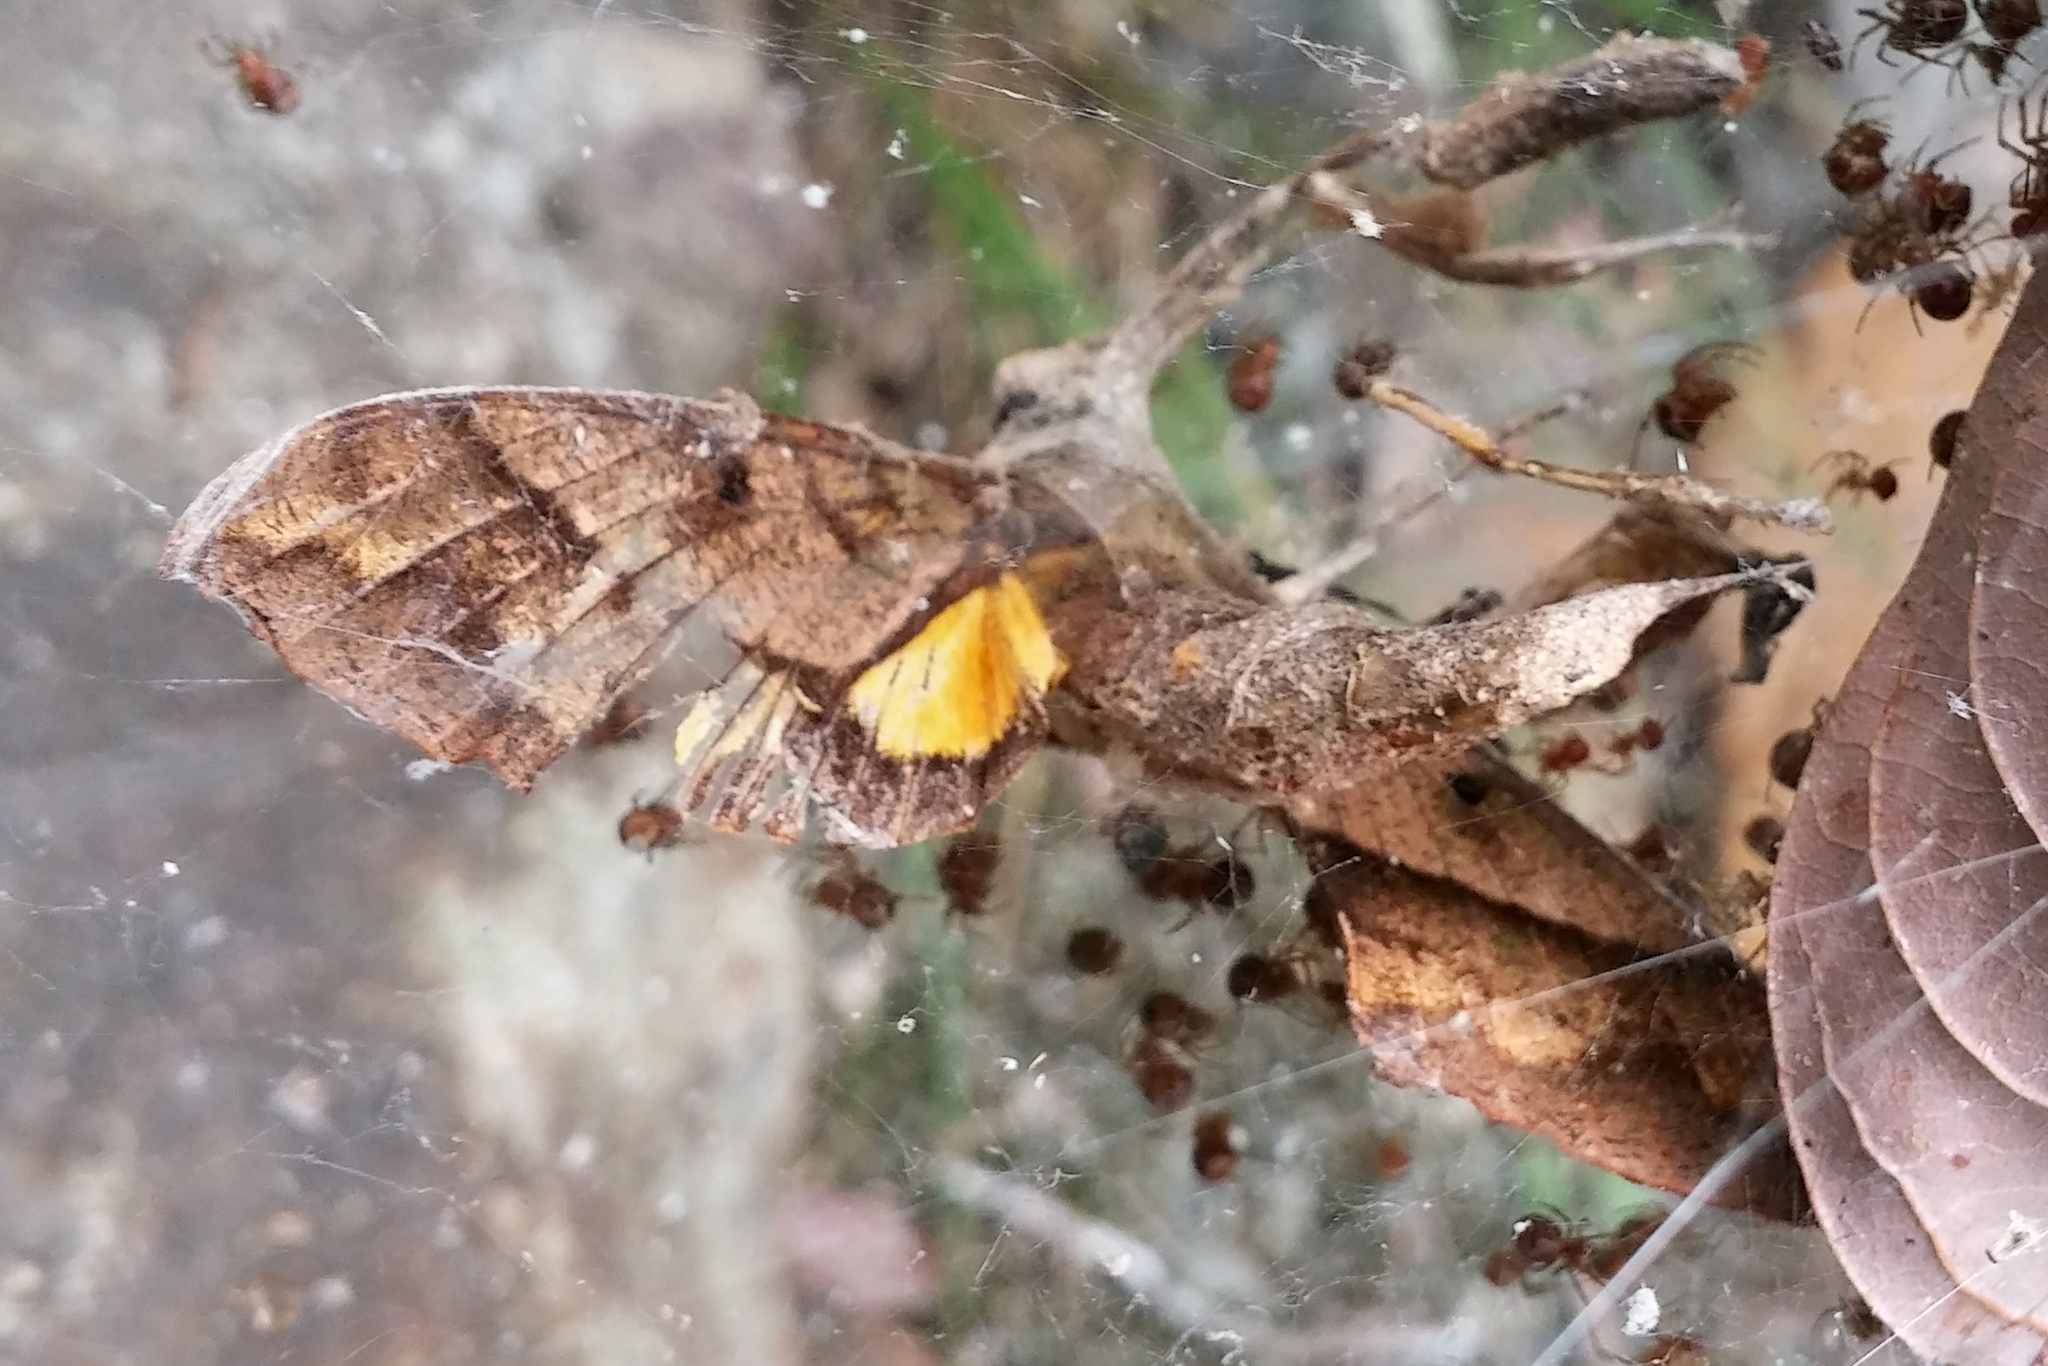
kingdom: Animalia
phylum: Arthropoda
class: Insecta
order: Lepidoptera
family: Sphingidae
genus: Gnathothlibus
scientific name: Gnathothlibus meeki
